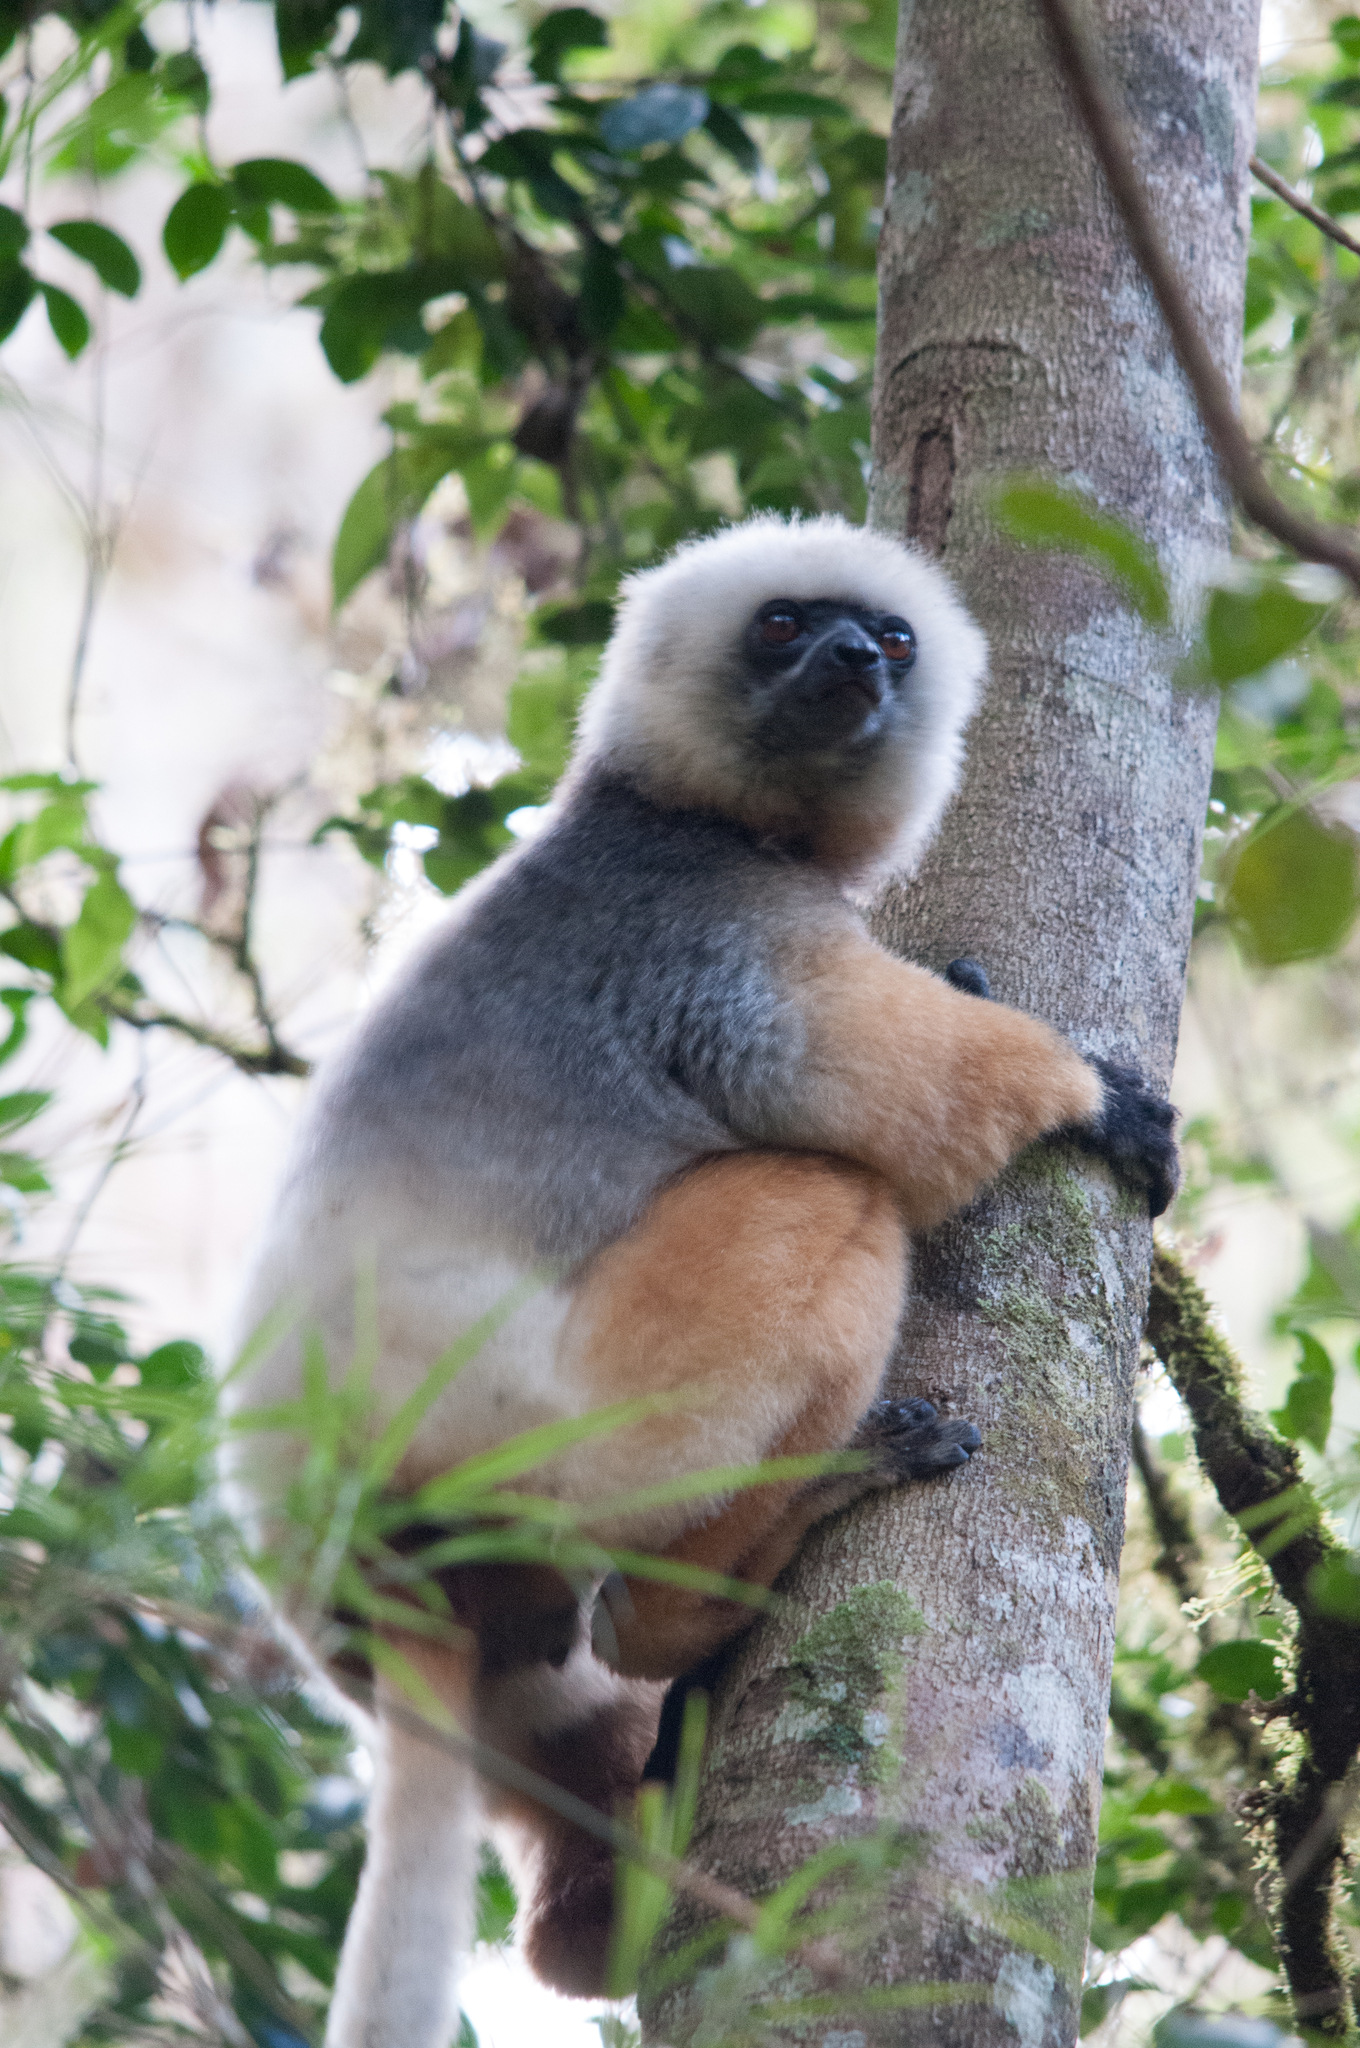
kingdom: Animalia
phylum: Chordata
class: Mammalia
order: Primates
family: Indriidae
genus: Propithecus
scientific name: Propithecus diadema
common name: Diademed sifaka
